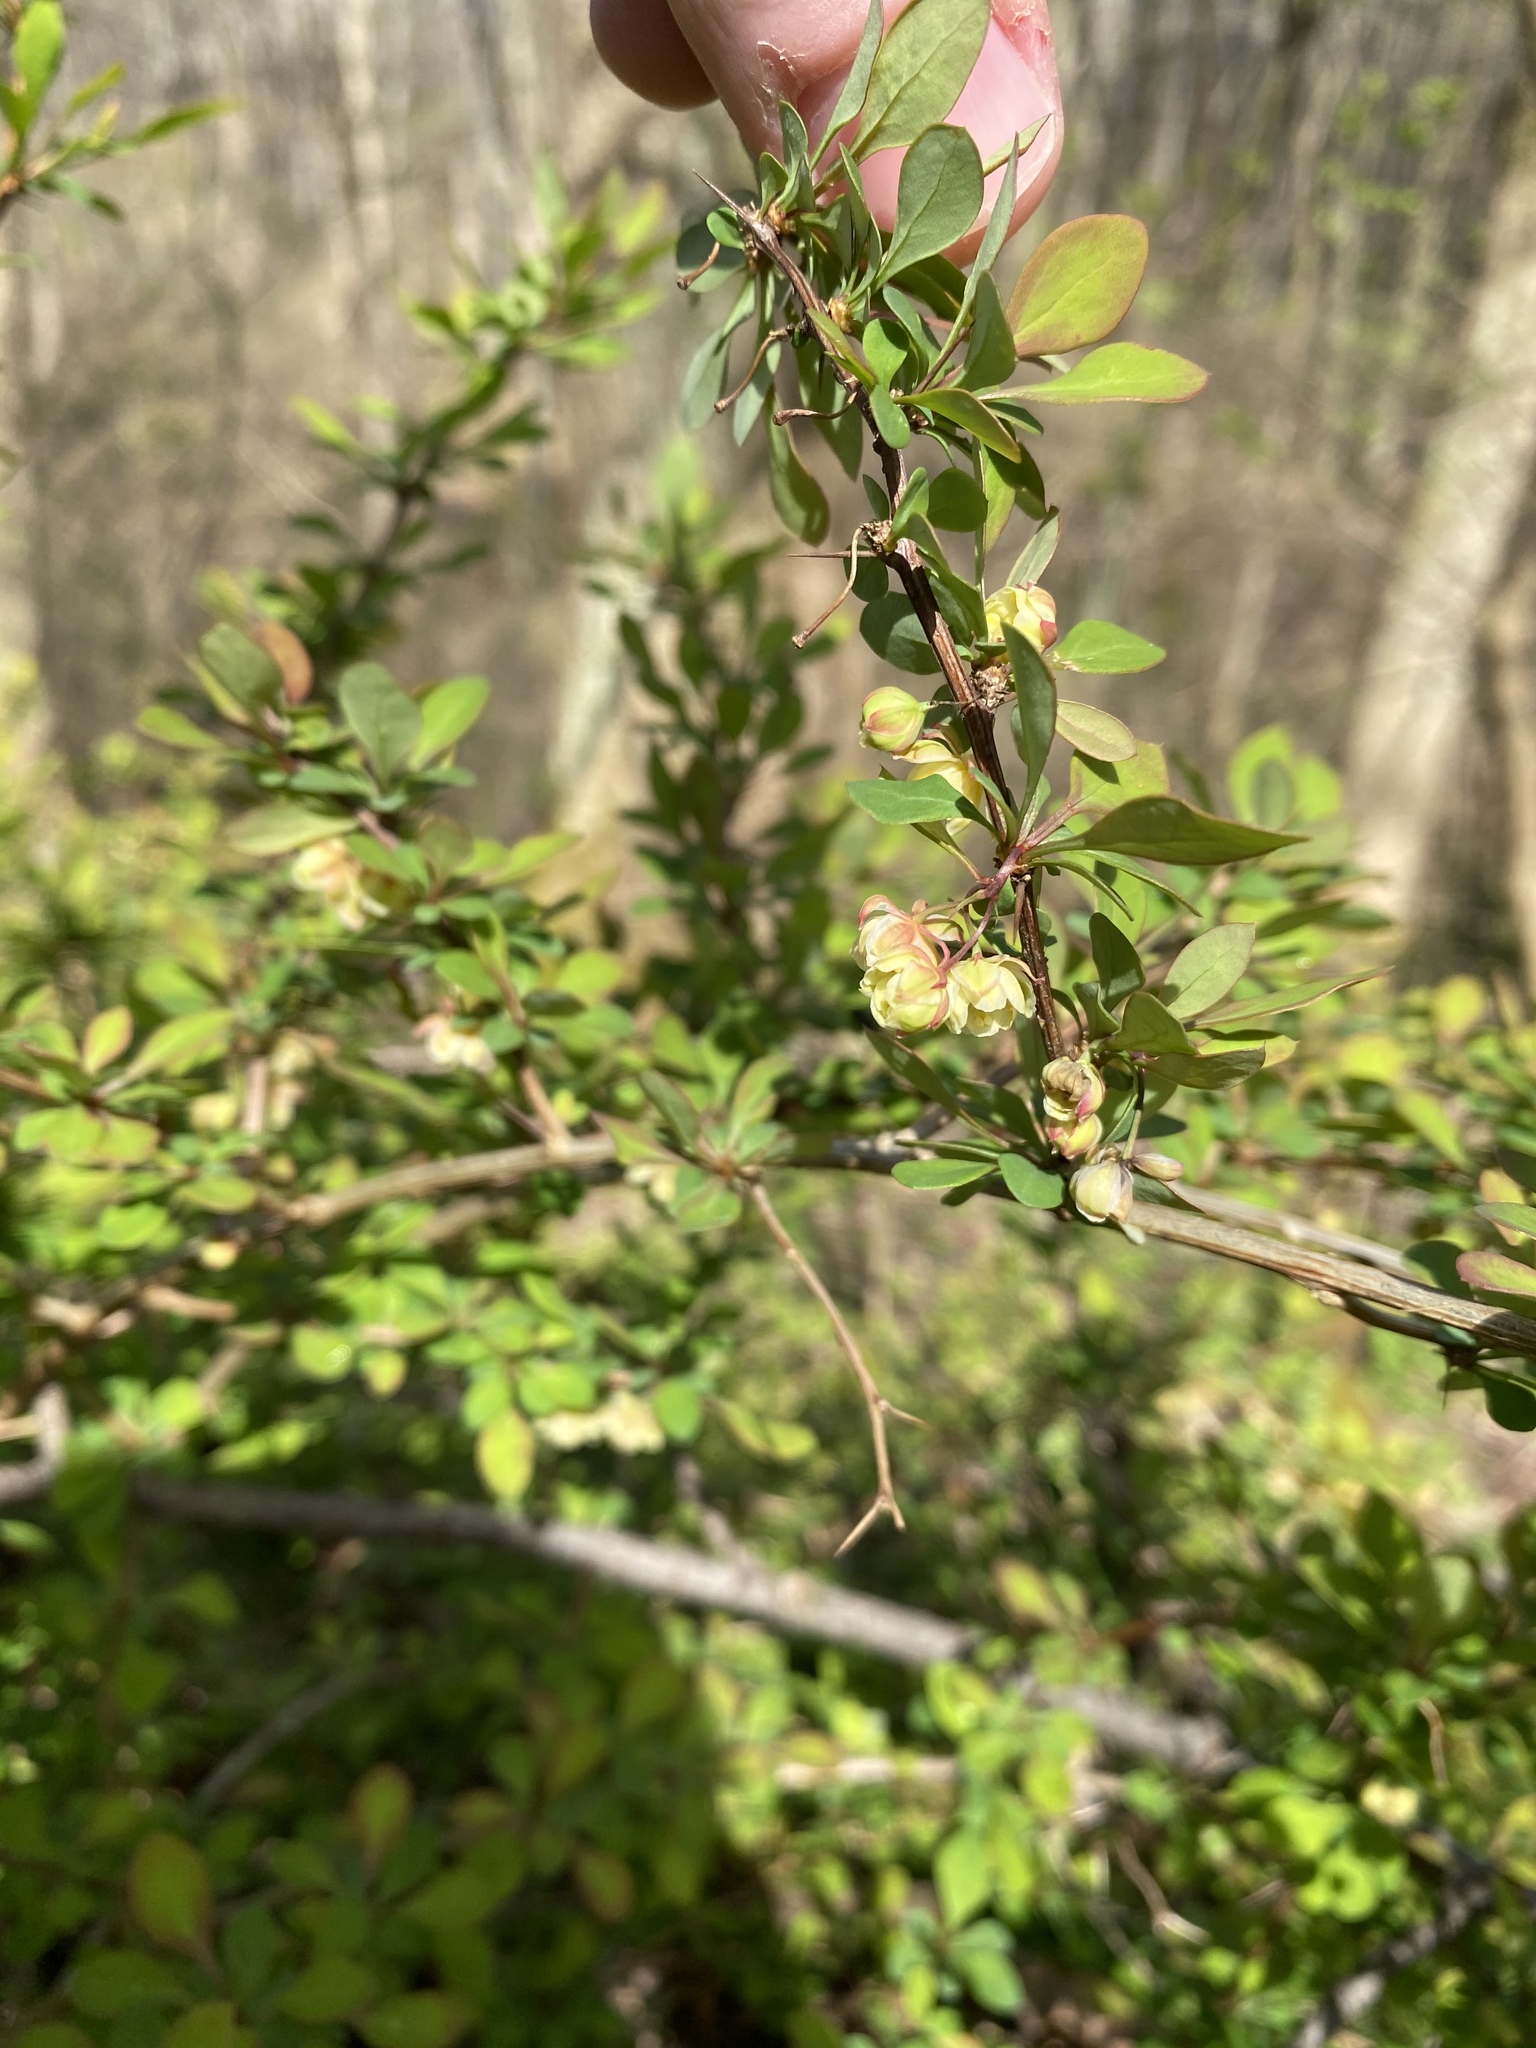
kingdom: Plantae
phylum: Tracheophyta
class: Magnoliopsida
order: Ranunculales
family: Berberidaceae
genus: Berberis
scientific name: Berberis thunbergii
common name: Japanese barberry
